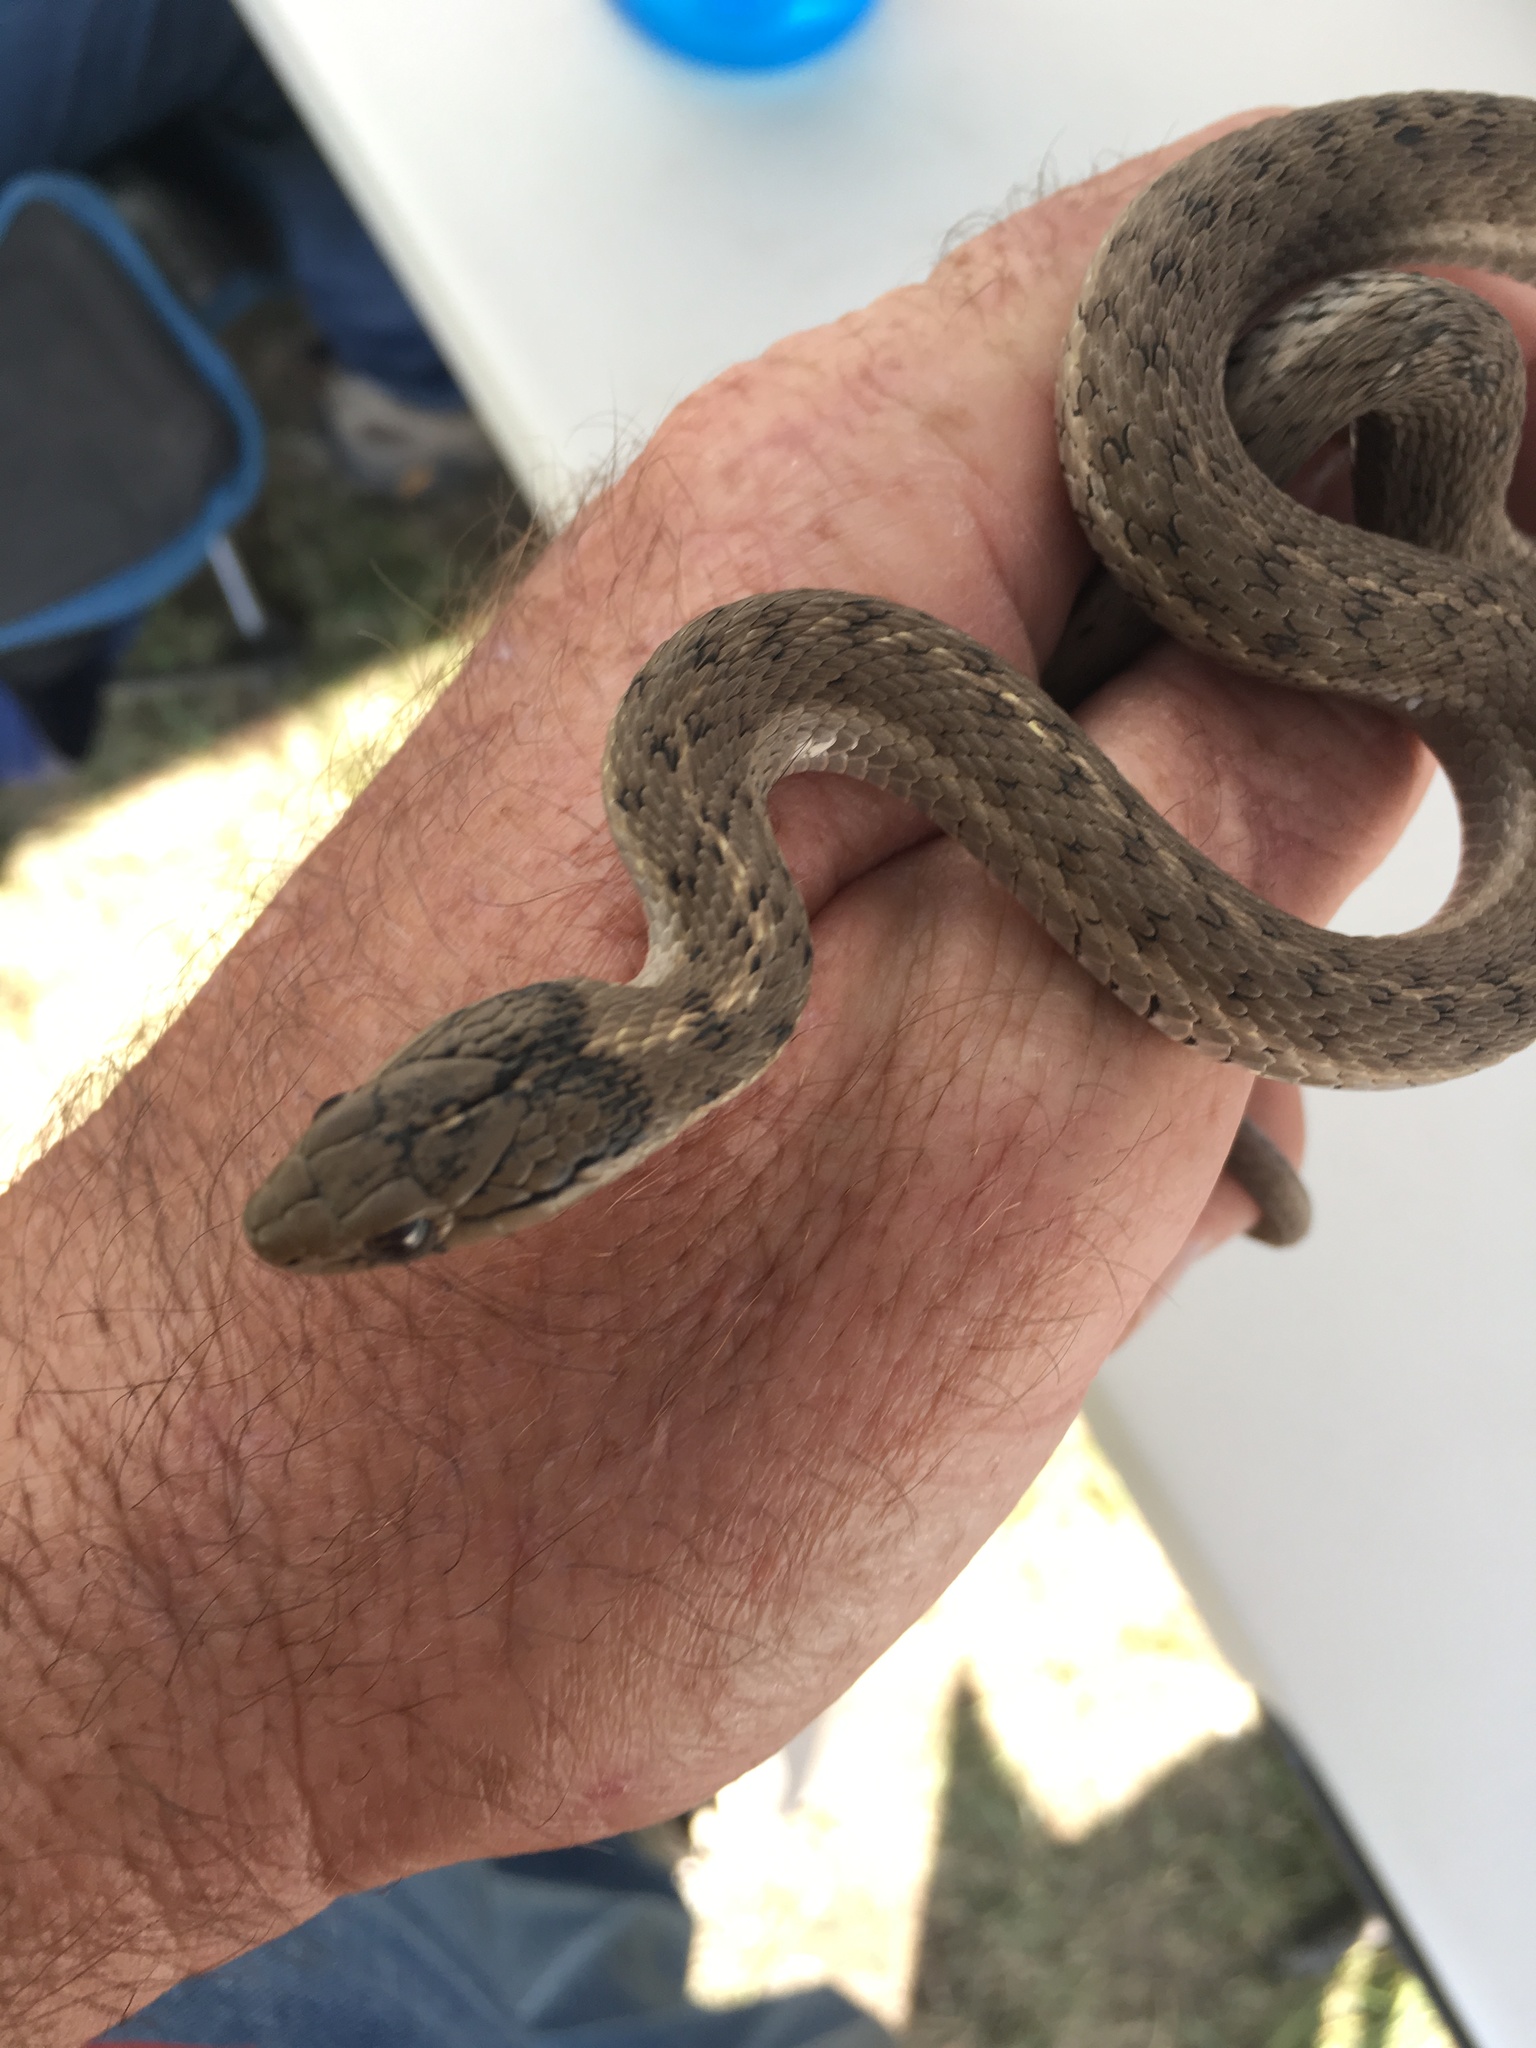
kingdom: Animalia
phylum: Chordata
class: Squamata
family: Colubridae
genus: Thamnophis
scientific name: Thamnophis elegans
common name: Western terrestrial garter snake
